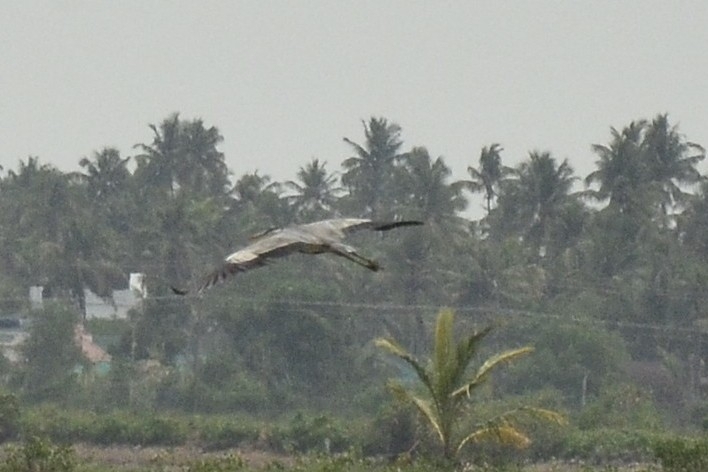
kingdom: Animalia
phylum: Chordata
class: Aves
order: Pelecaniformes
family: Ardeidae
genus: Ardea
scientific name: Ardea cinerea
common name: Grey heron
